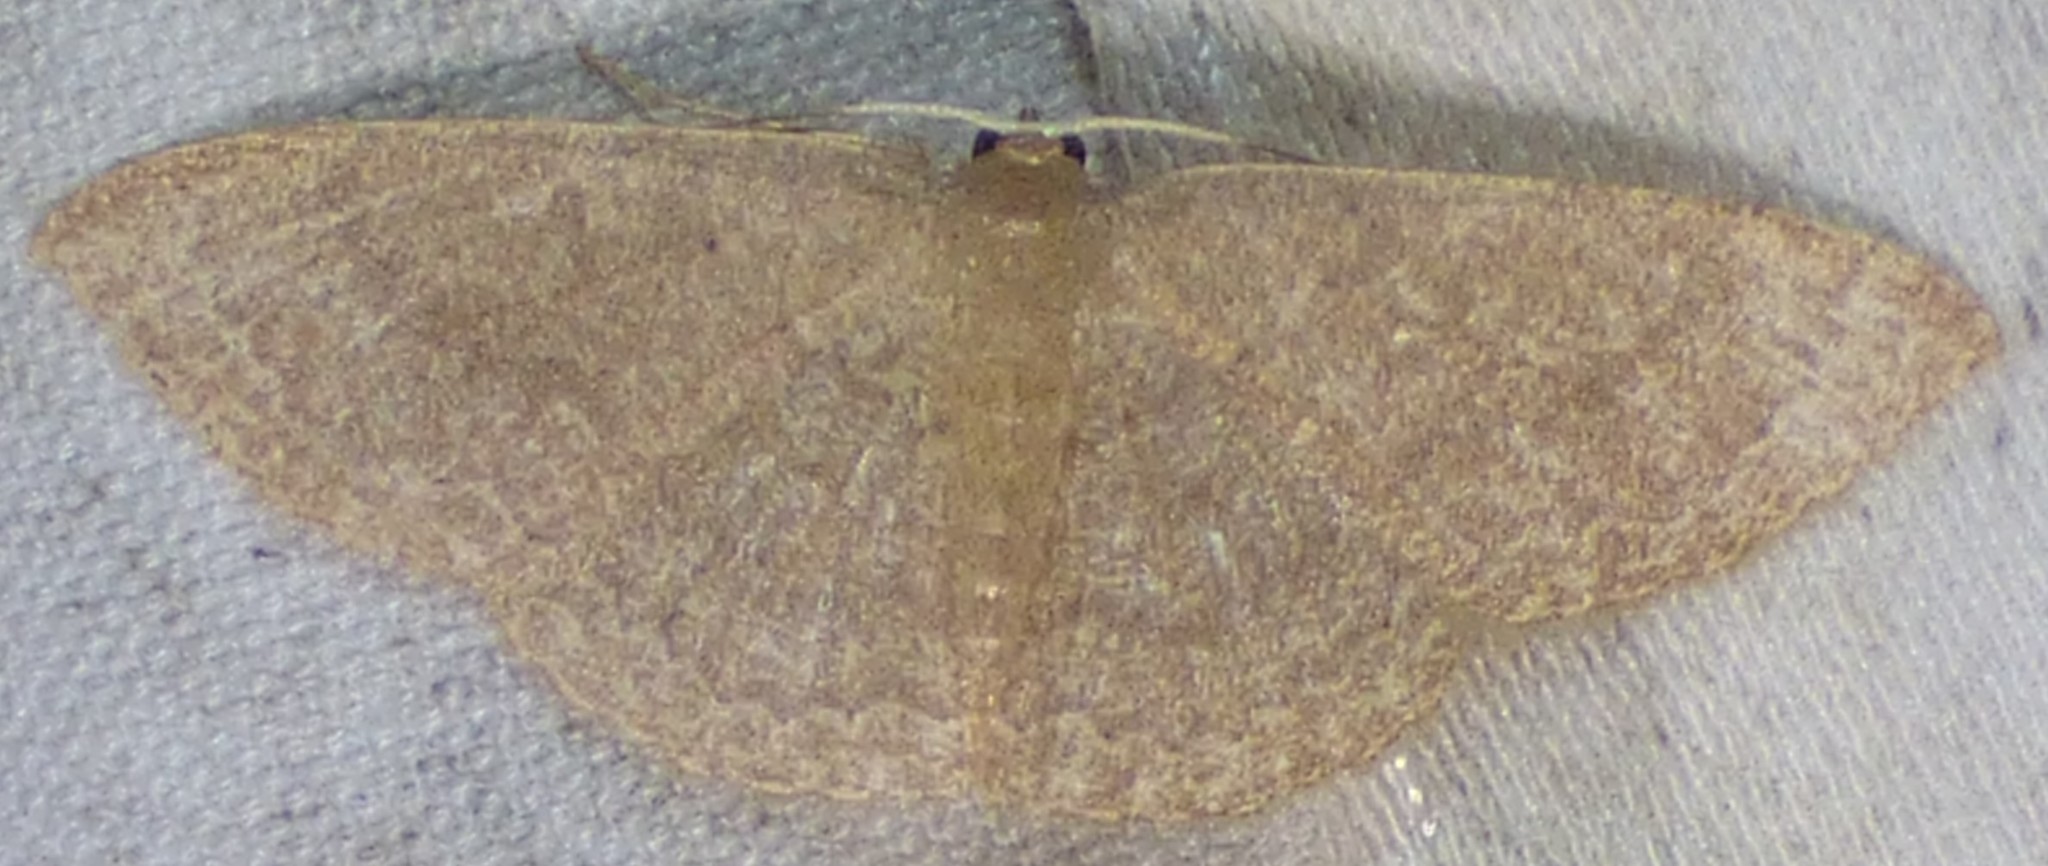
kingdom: Animalia
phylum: Arthropoda
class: Insecta
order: Lepidoptera
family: Geometridae
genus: Pleuroprucha
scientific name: Pleuroprucha insulsaria
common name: Common tan wave
